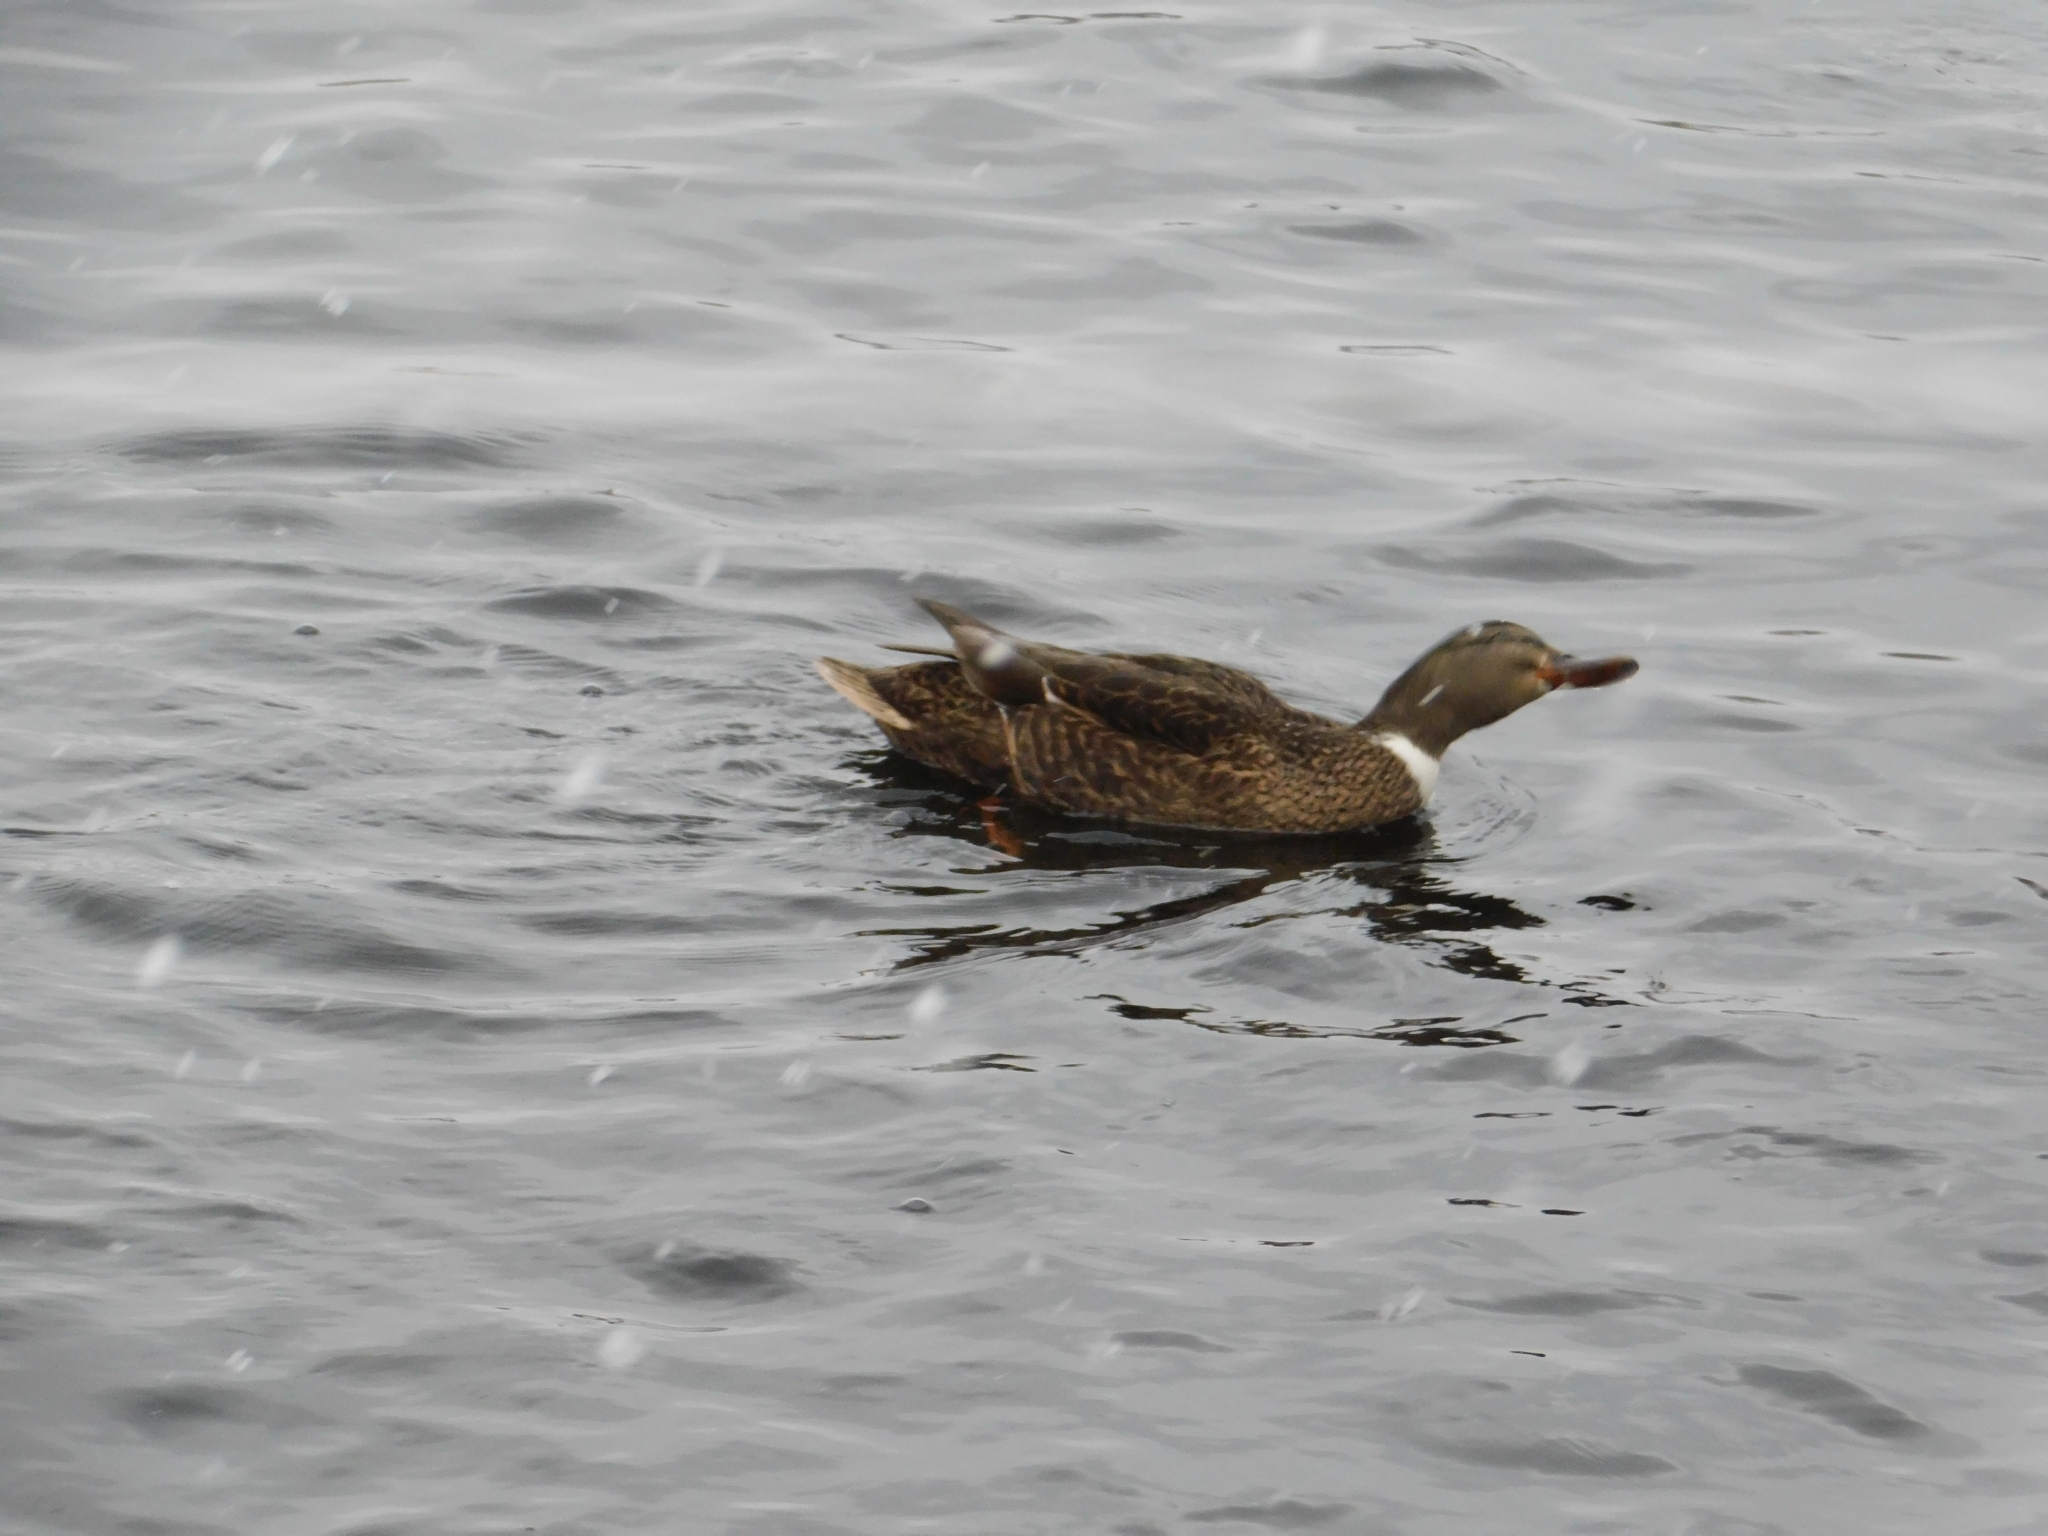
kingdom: Animalia
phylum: Chordata
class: Aves
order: Anseriformes
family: Anatidae
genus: Anas
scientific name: Anas platyrhynchos
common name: Mallard
